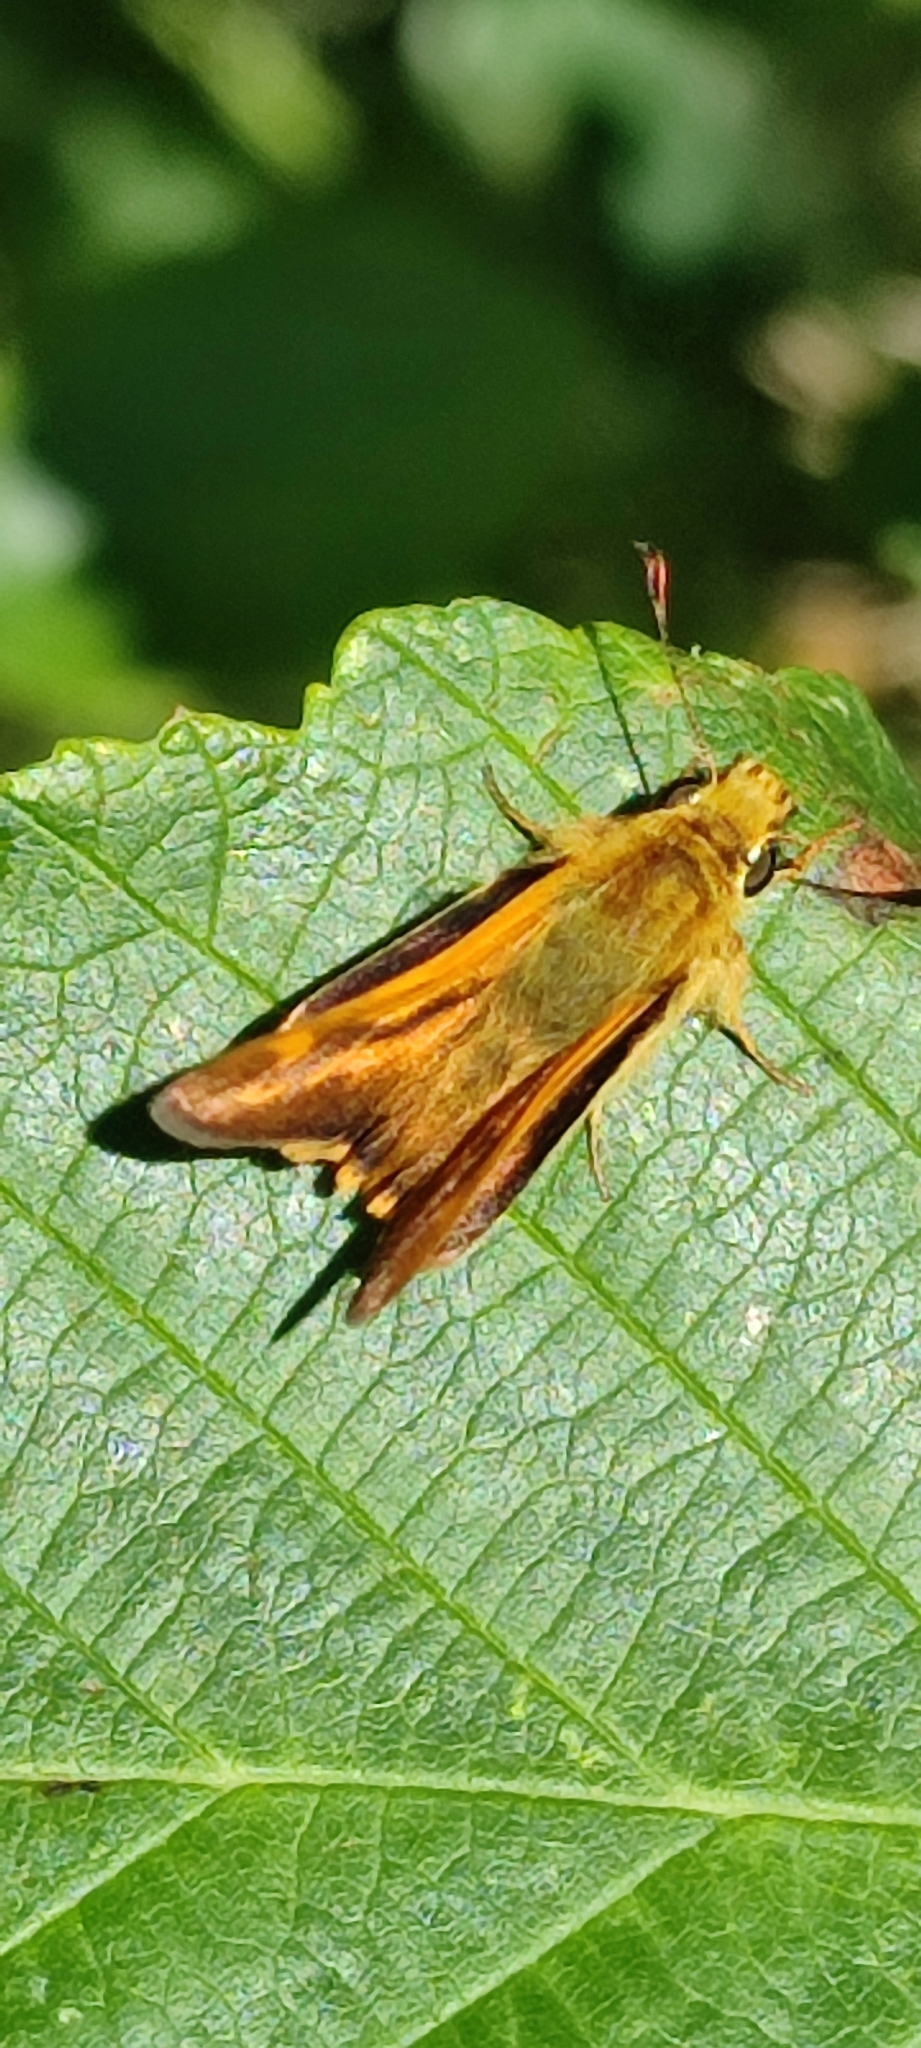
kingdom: Animalia
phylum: Arthropoda
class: Insecta
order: Lepidoptera
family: Hesperiidae
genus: Ochlodes
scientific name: Ochlodes sylvanoides
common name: Woodland skipper
